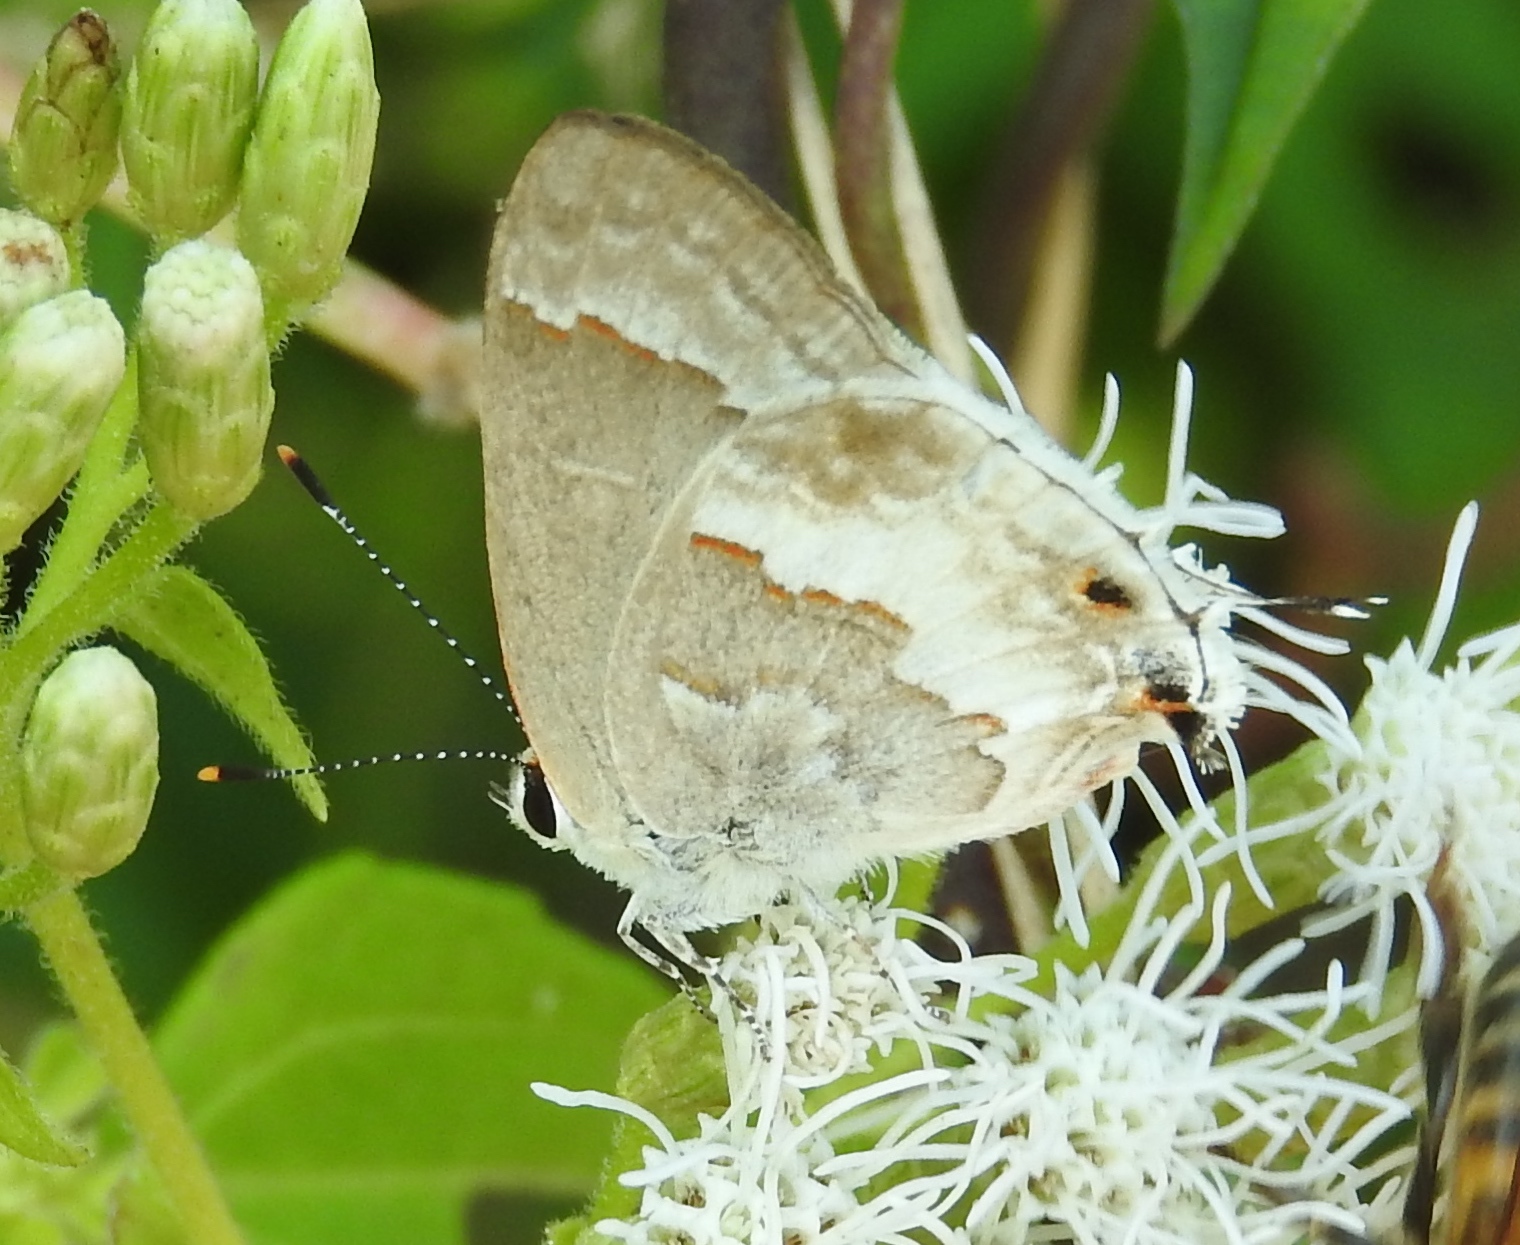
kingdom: Animalia
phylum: Arthropoda
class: Insecta
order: Lepidoptera
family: Lycaenidae
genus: Strymon
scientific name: Strymon albata
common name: White scrub-hairstreak
